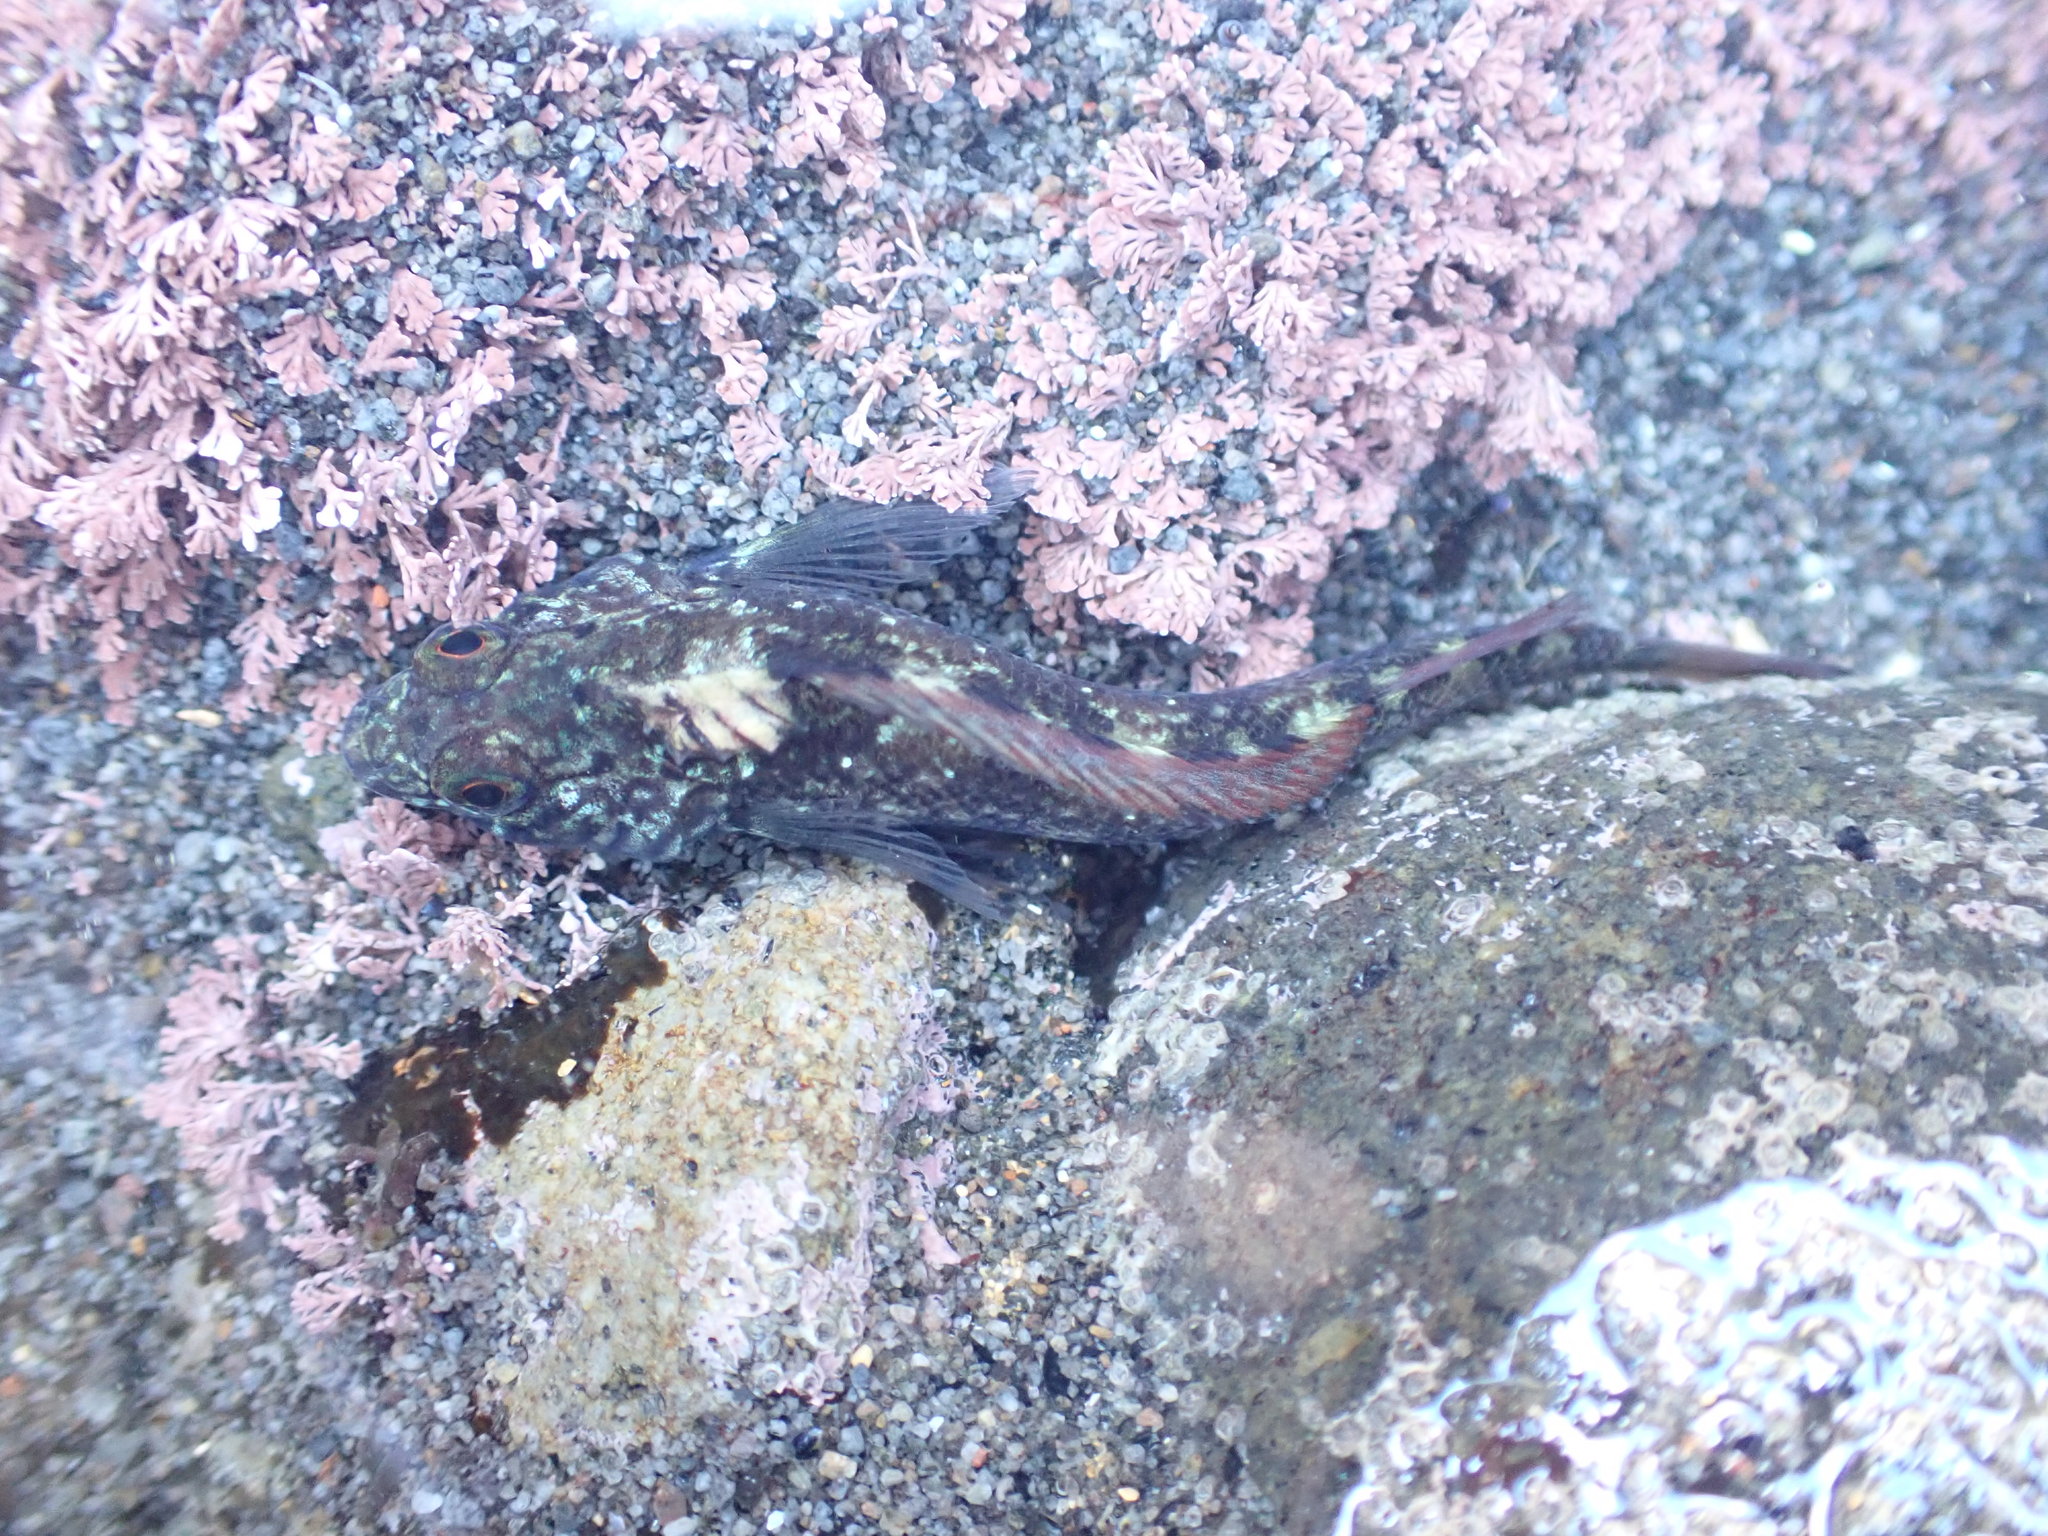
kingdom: Animalia
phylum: Chordata
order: Perciformes
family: Tripterygiidae
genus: Forsterygion
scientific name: Forsterygion lapillum
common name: Common triplefin
